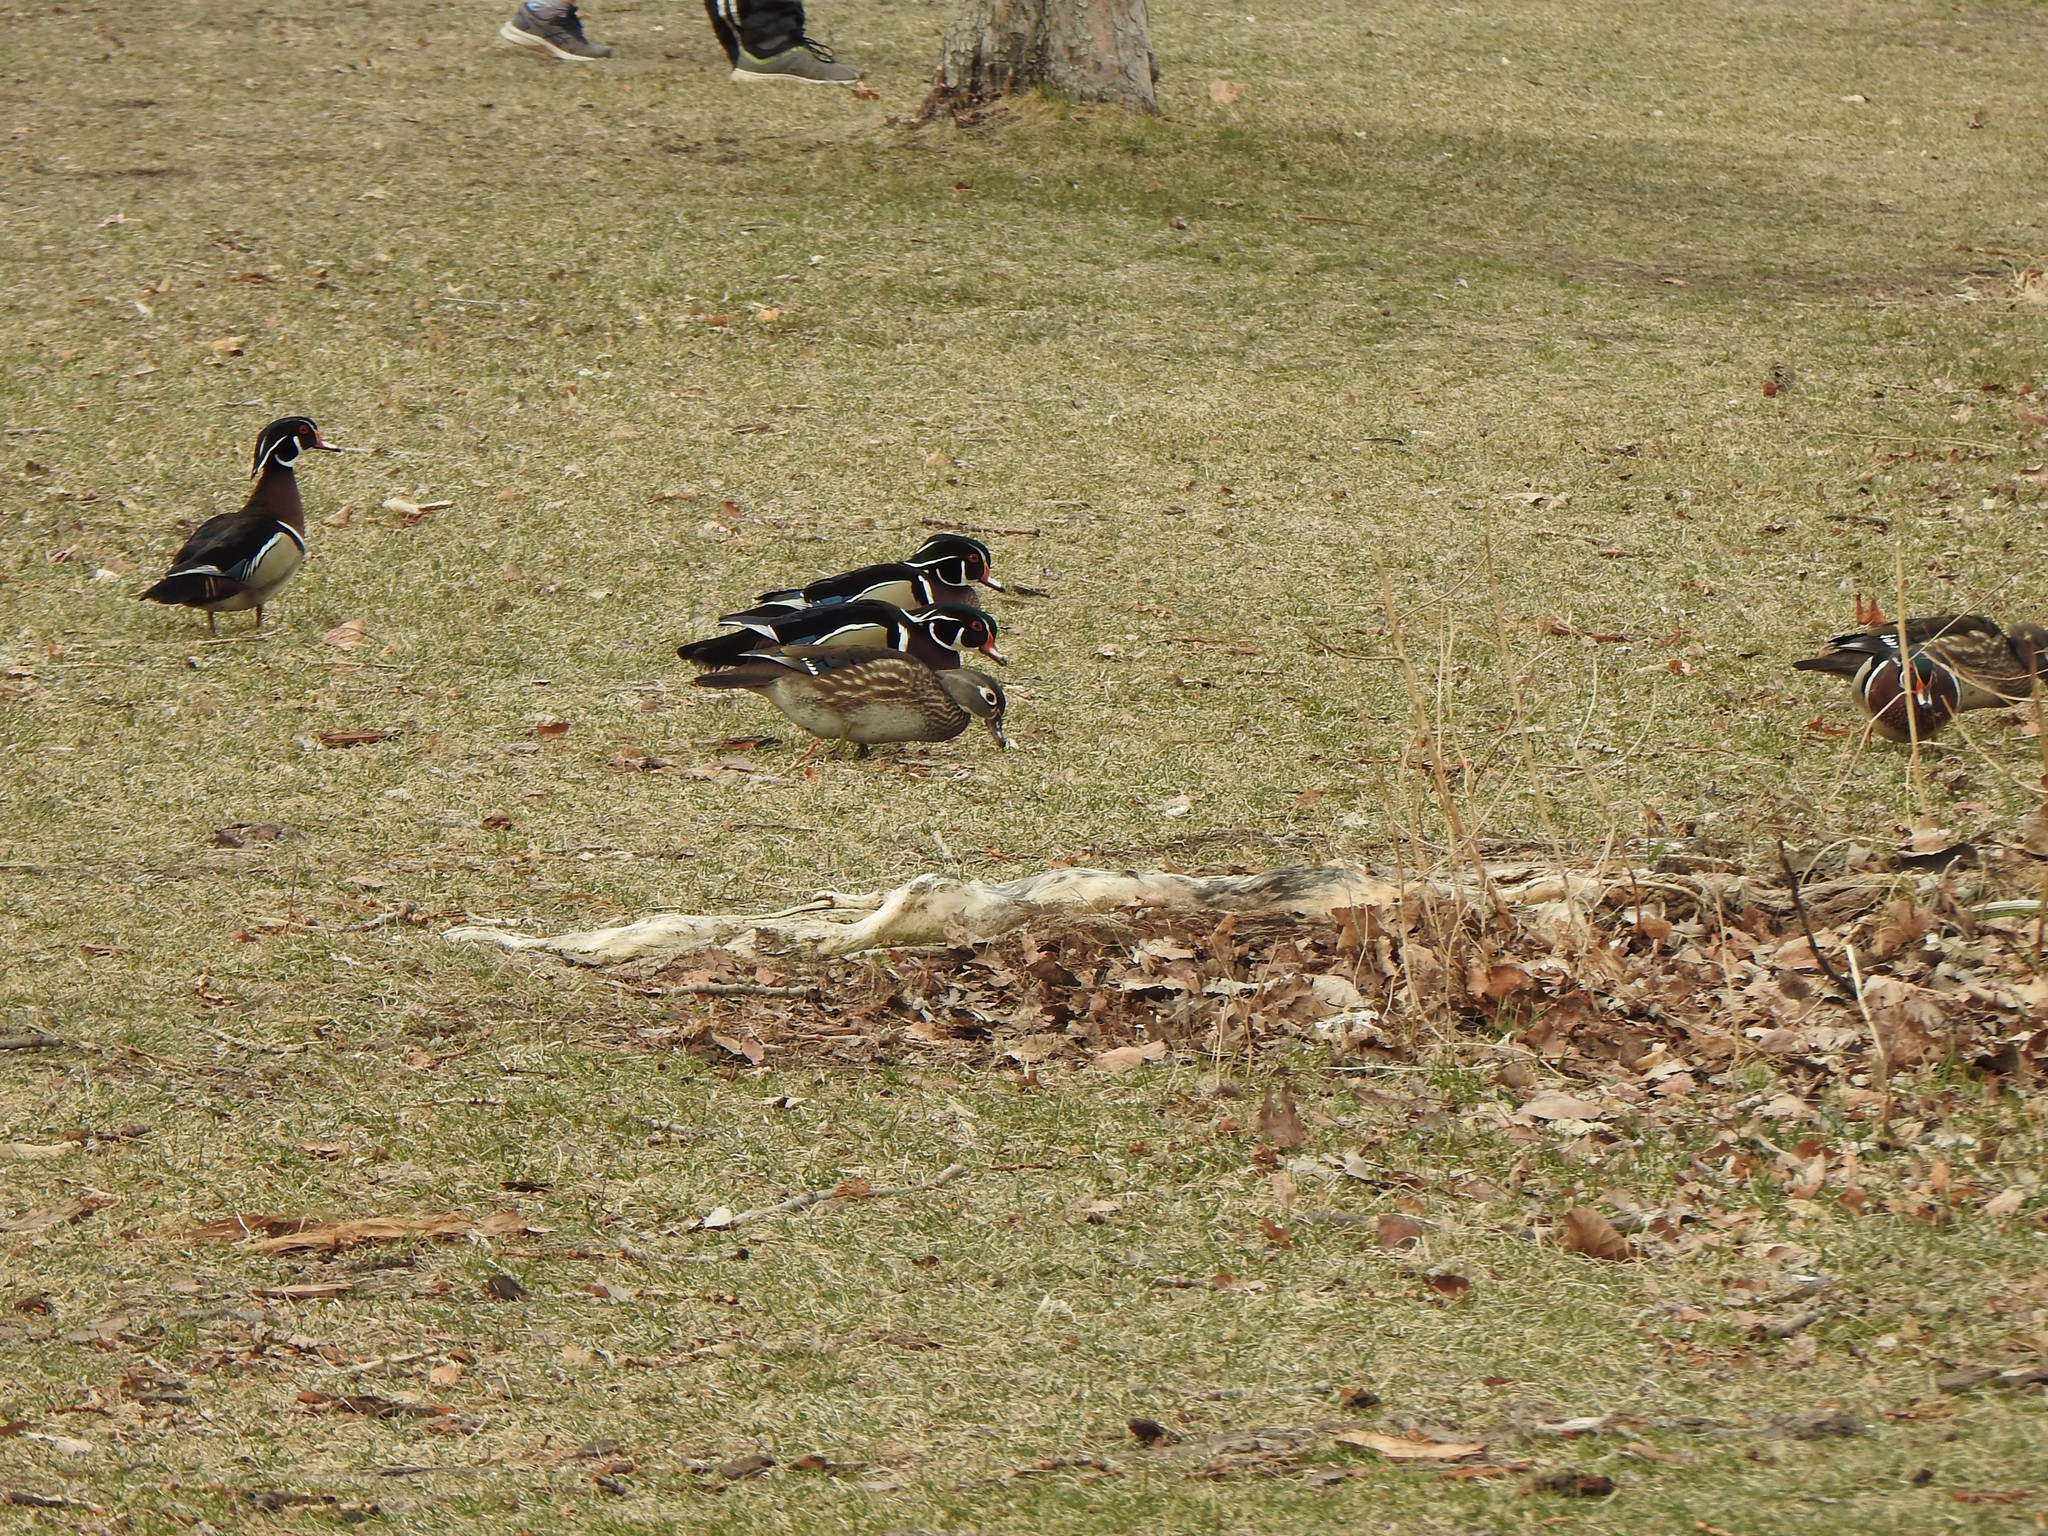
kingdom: Animalia
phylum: Chordata
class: Aves
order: Anseriformes
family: Anatidae
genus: Aix
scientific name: Aix sponsa
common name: Wood duck
